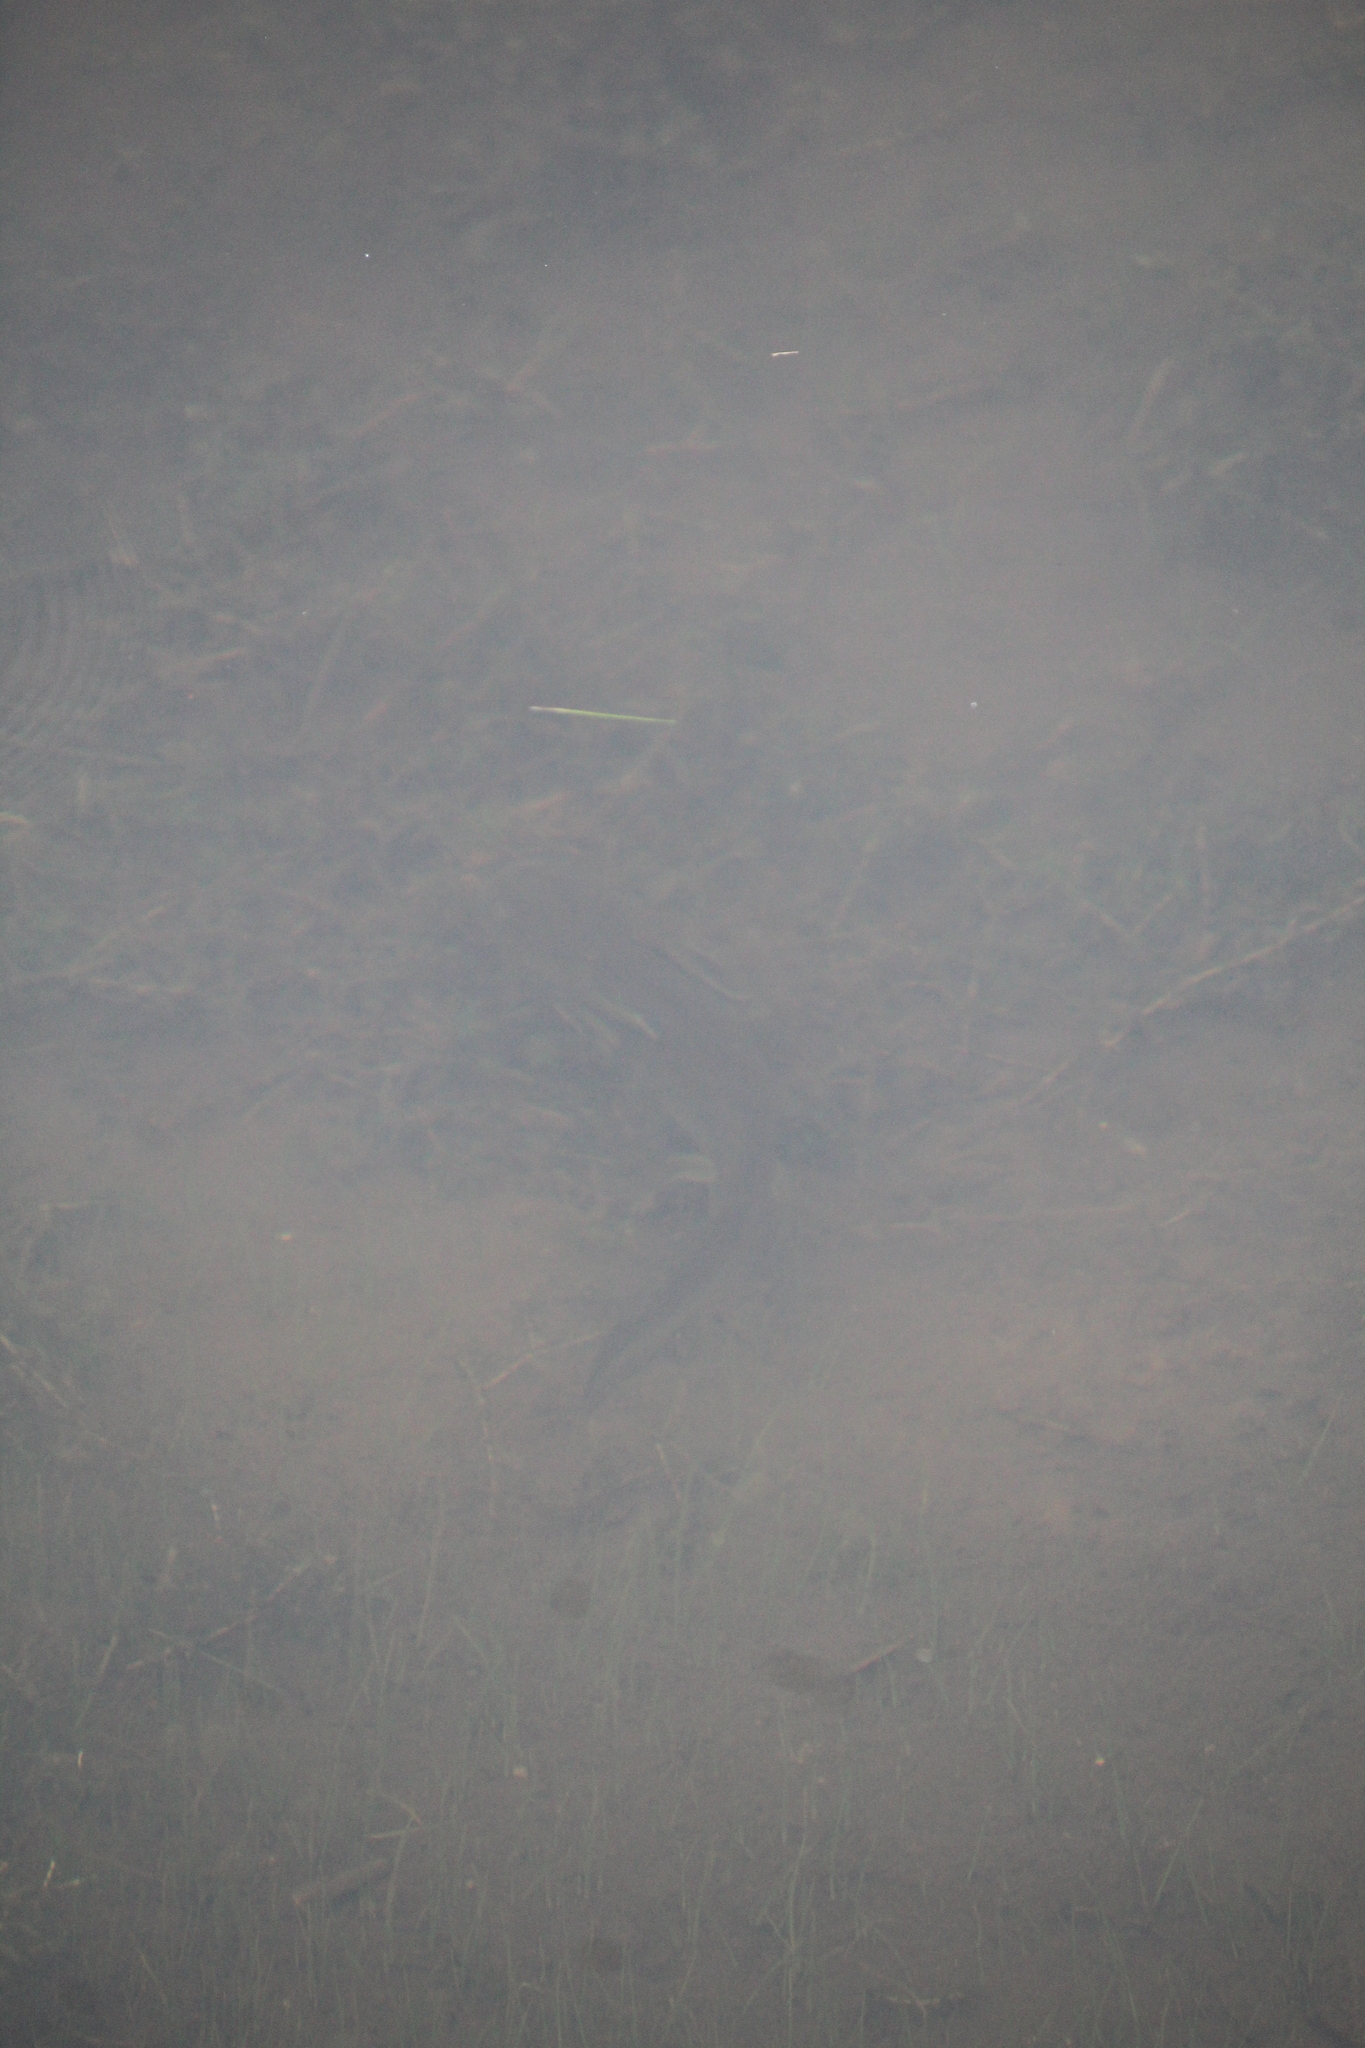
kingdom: Animalia
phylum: Chordata
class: Amphibia
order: Caudata
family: Ambystomatidae
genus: Ambystoma
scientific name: Ambystoma mavortium
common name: Western tiger salamander
